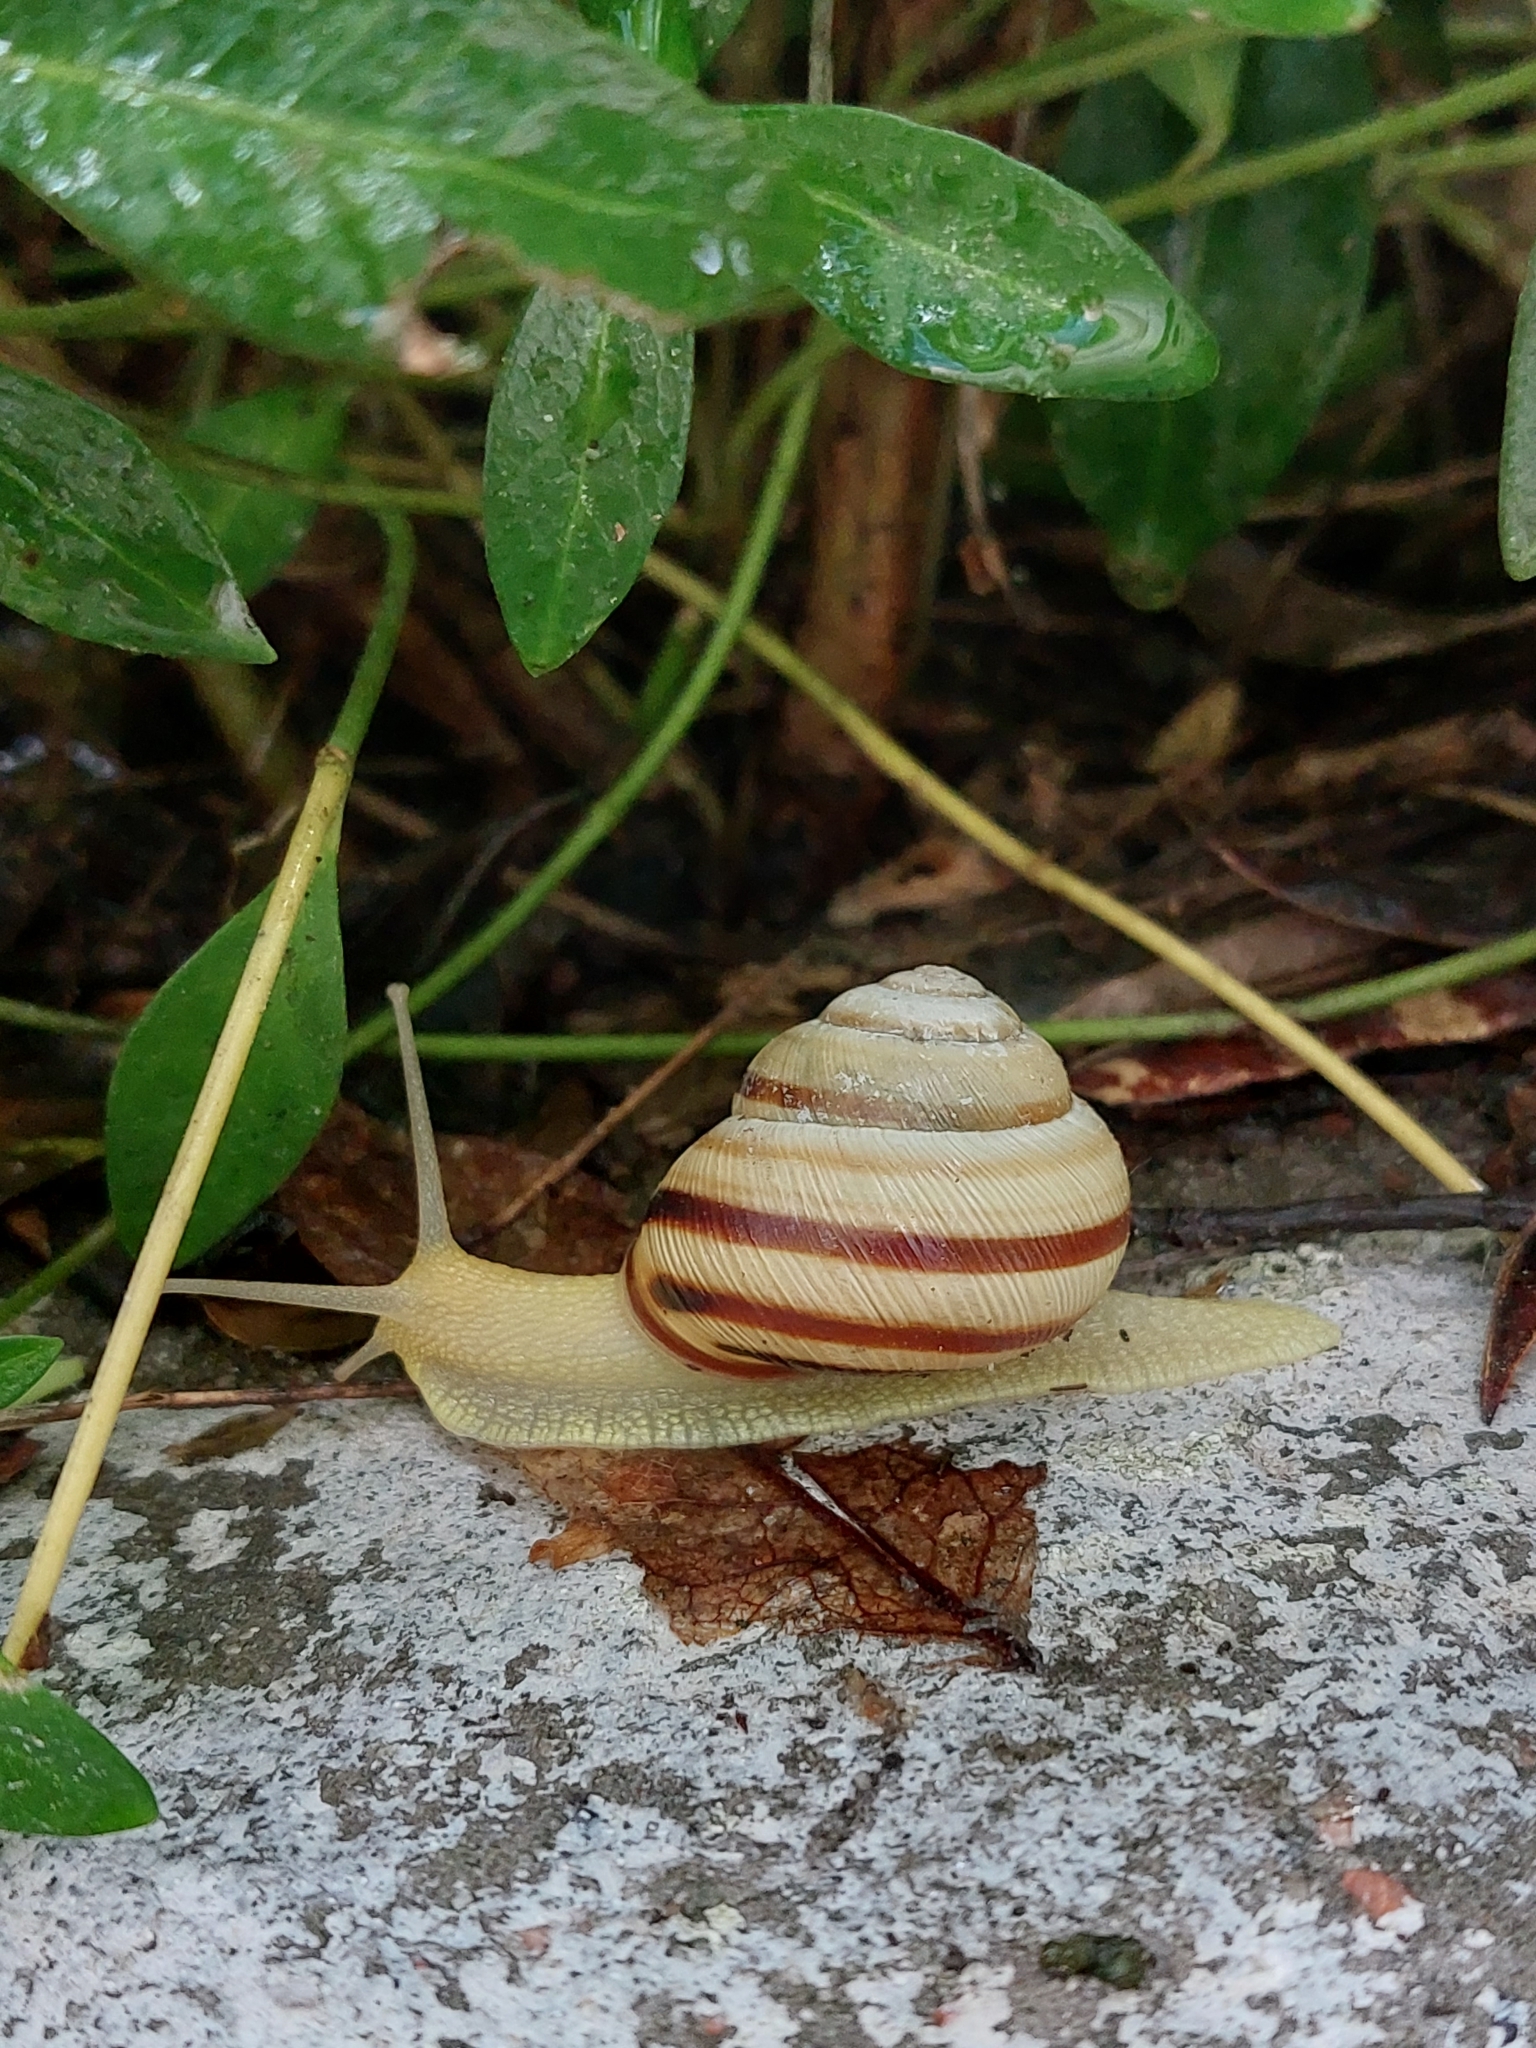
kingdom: Animalia
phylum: Mollusca
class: Gastropoda
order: Stylommatophora
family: Helicidae
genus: Caucasotachea
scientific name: Caucasotachea vindobonensis
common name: European helicid land snail
